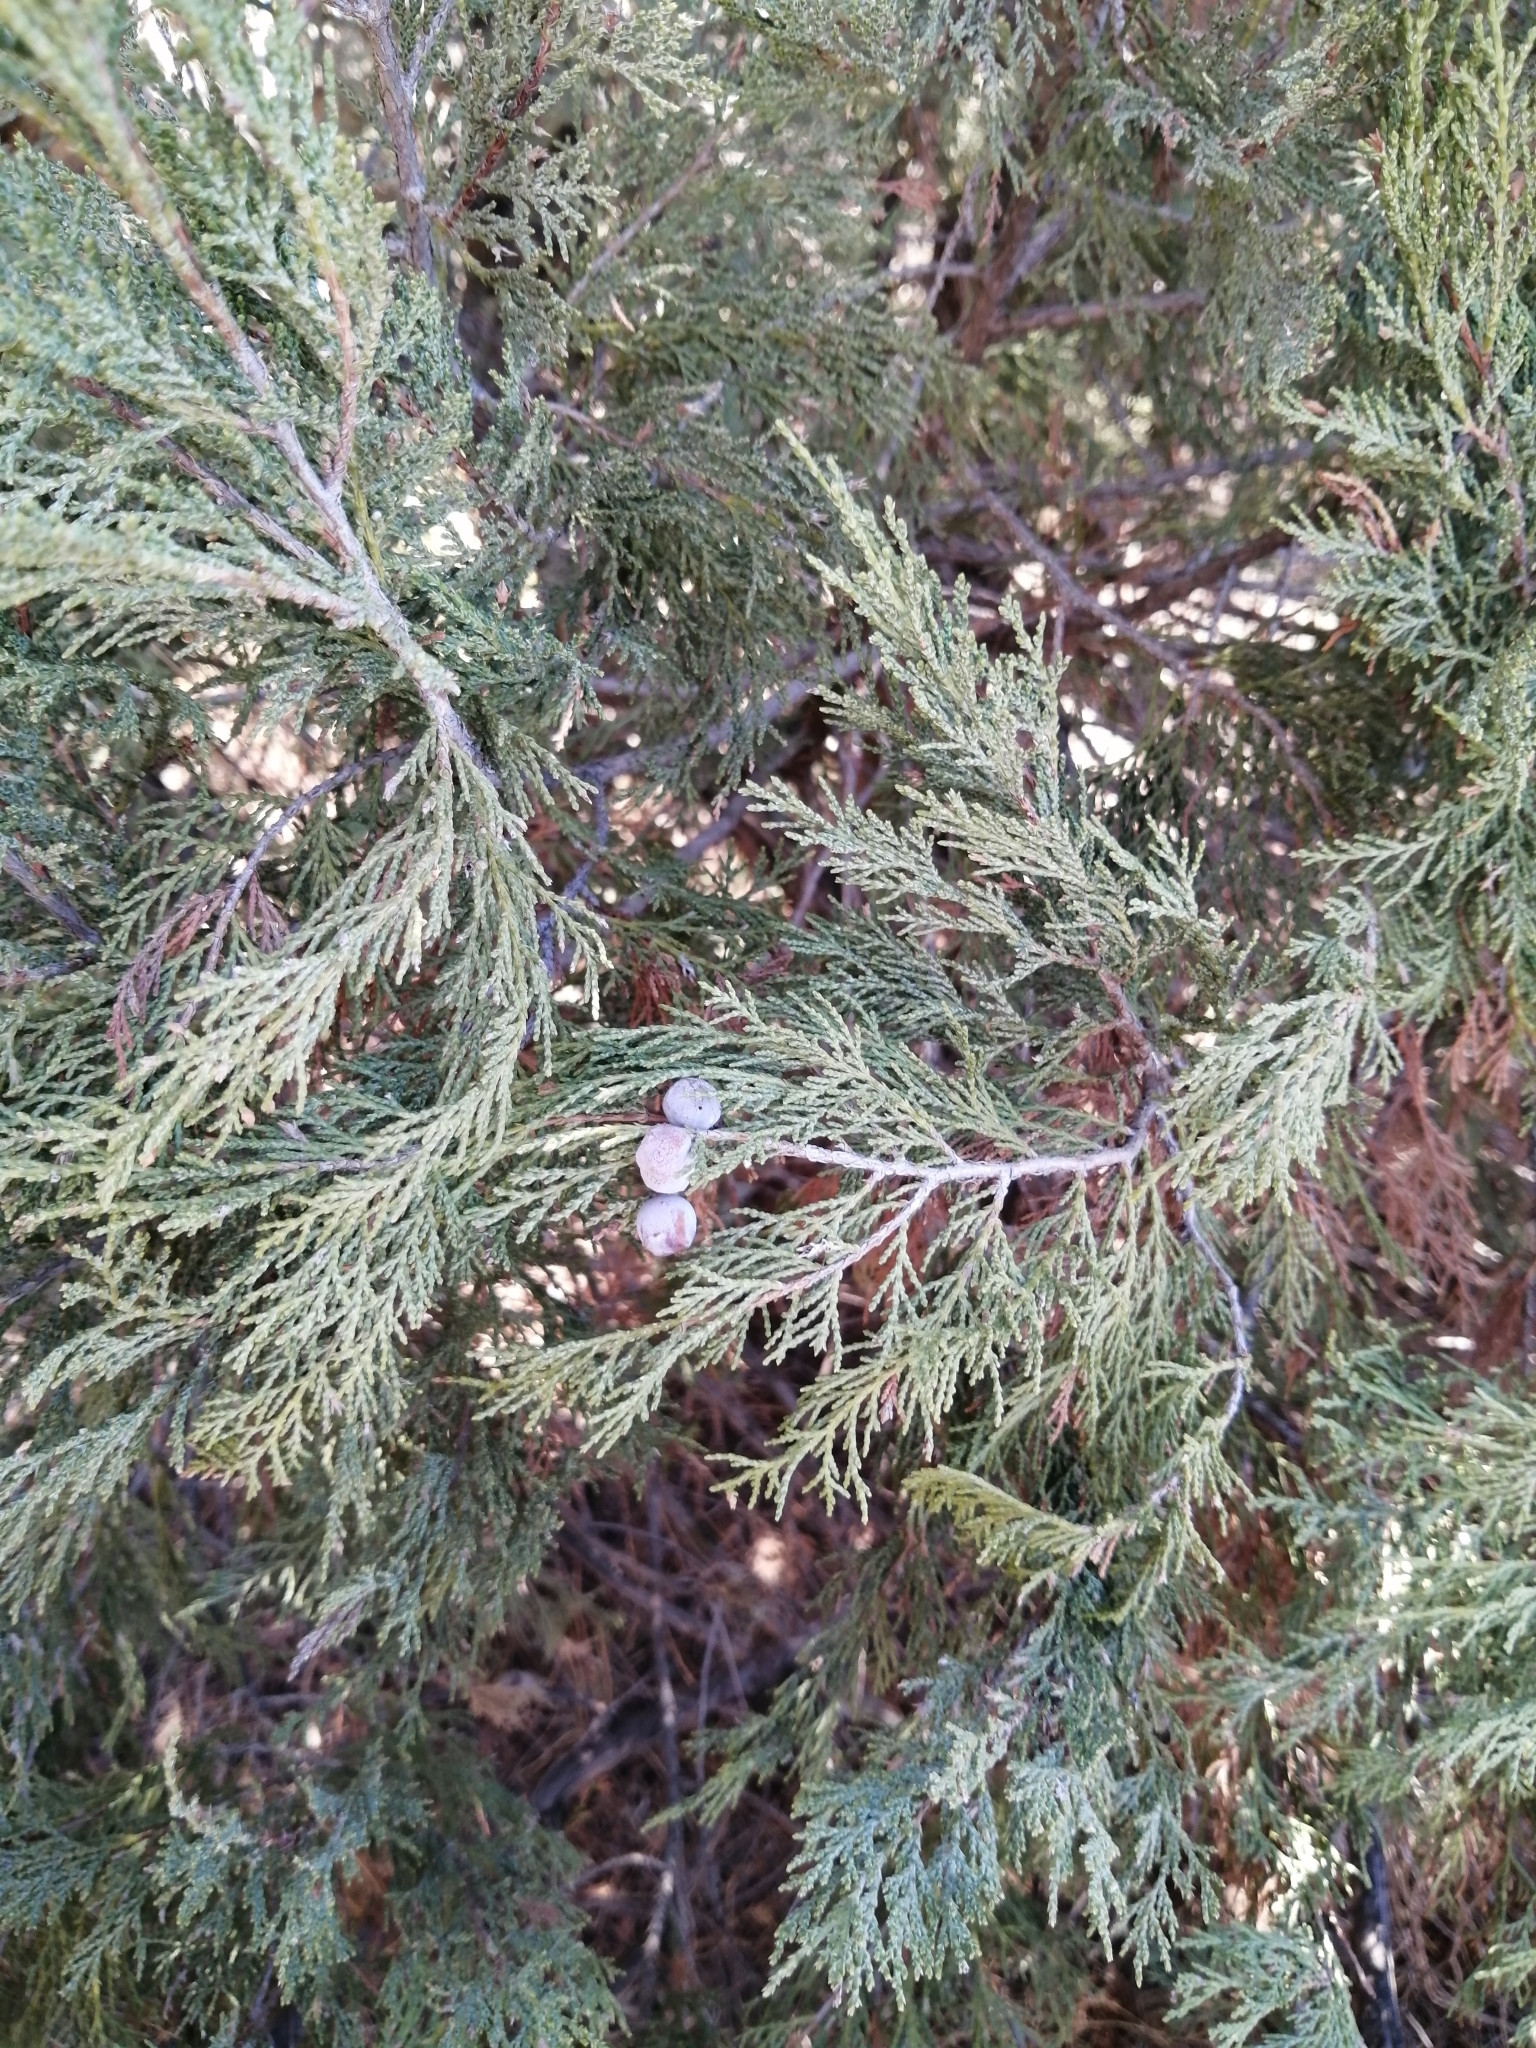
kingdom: Plantae
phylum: Tracheophyta
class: Pinopsida
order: Pinales
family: Cupressaceae
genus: Juniperus
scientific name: Juniperus excelsa
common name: Crimean juniper
